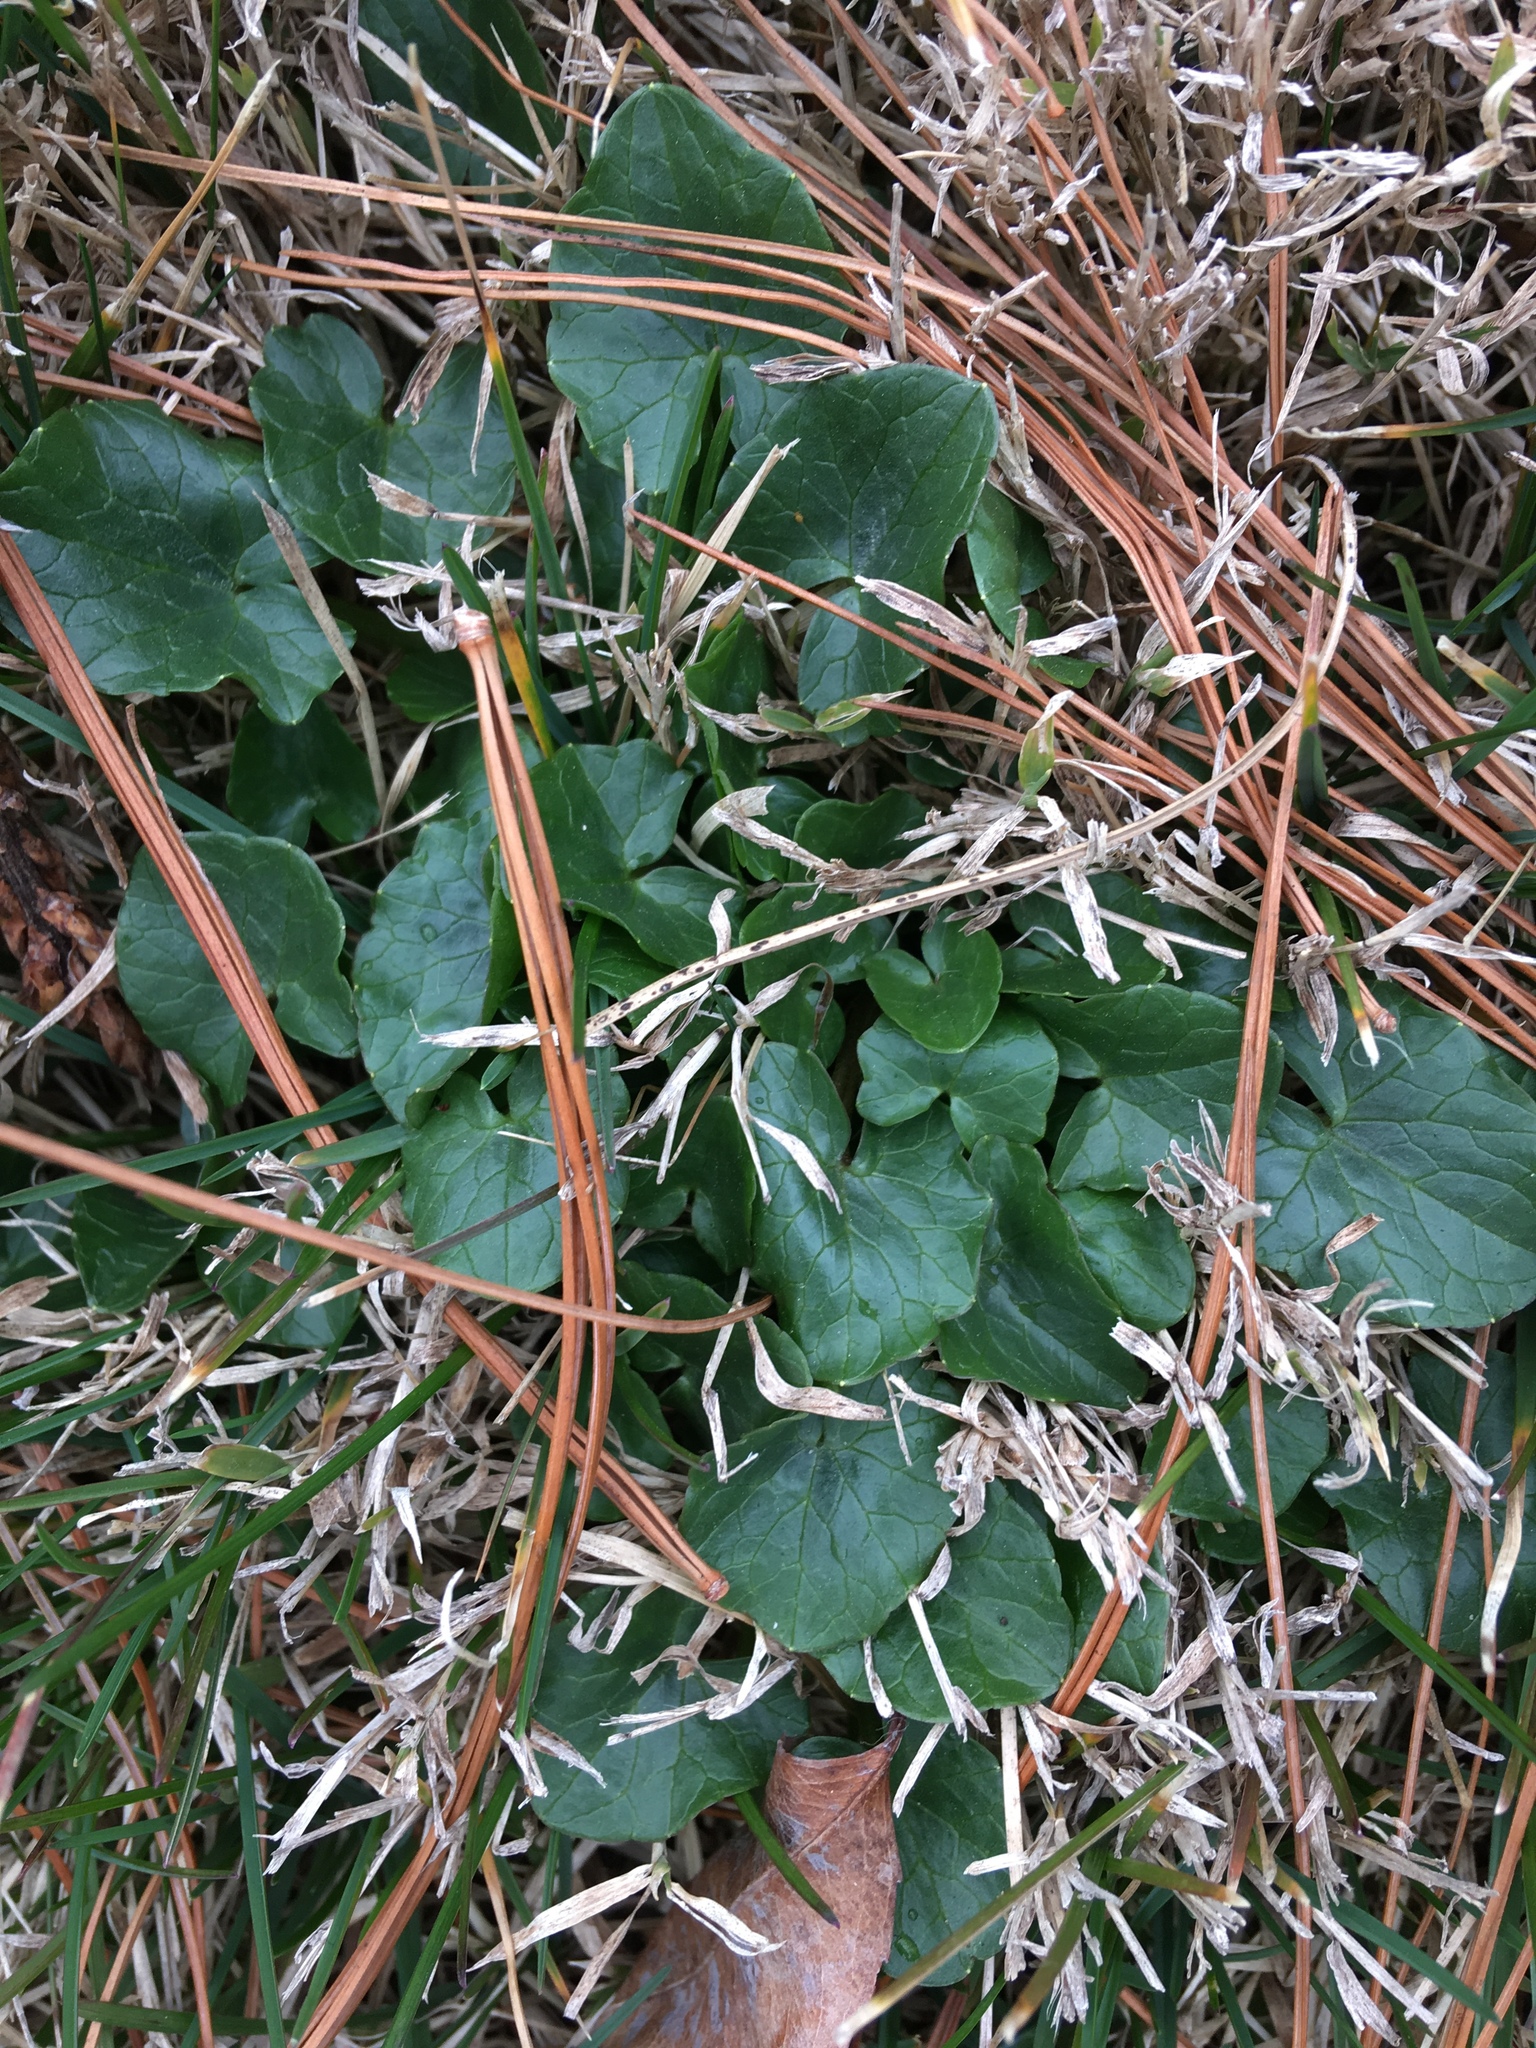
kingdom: Plantae
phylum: Tracheophyta
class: Magnoliopsida
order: Ranunculales
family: Ranunculaceae
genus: Ficaria
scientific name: Ficaria verna
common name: Lesser celandine
